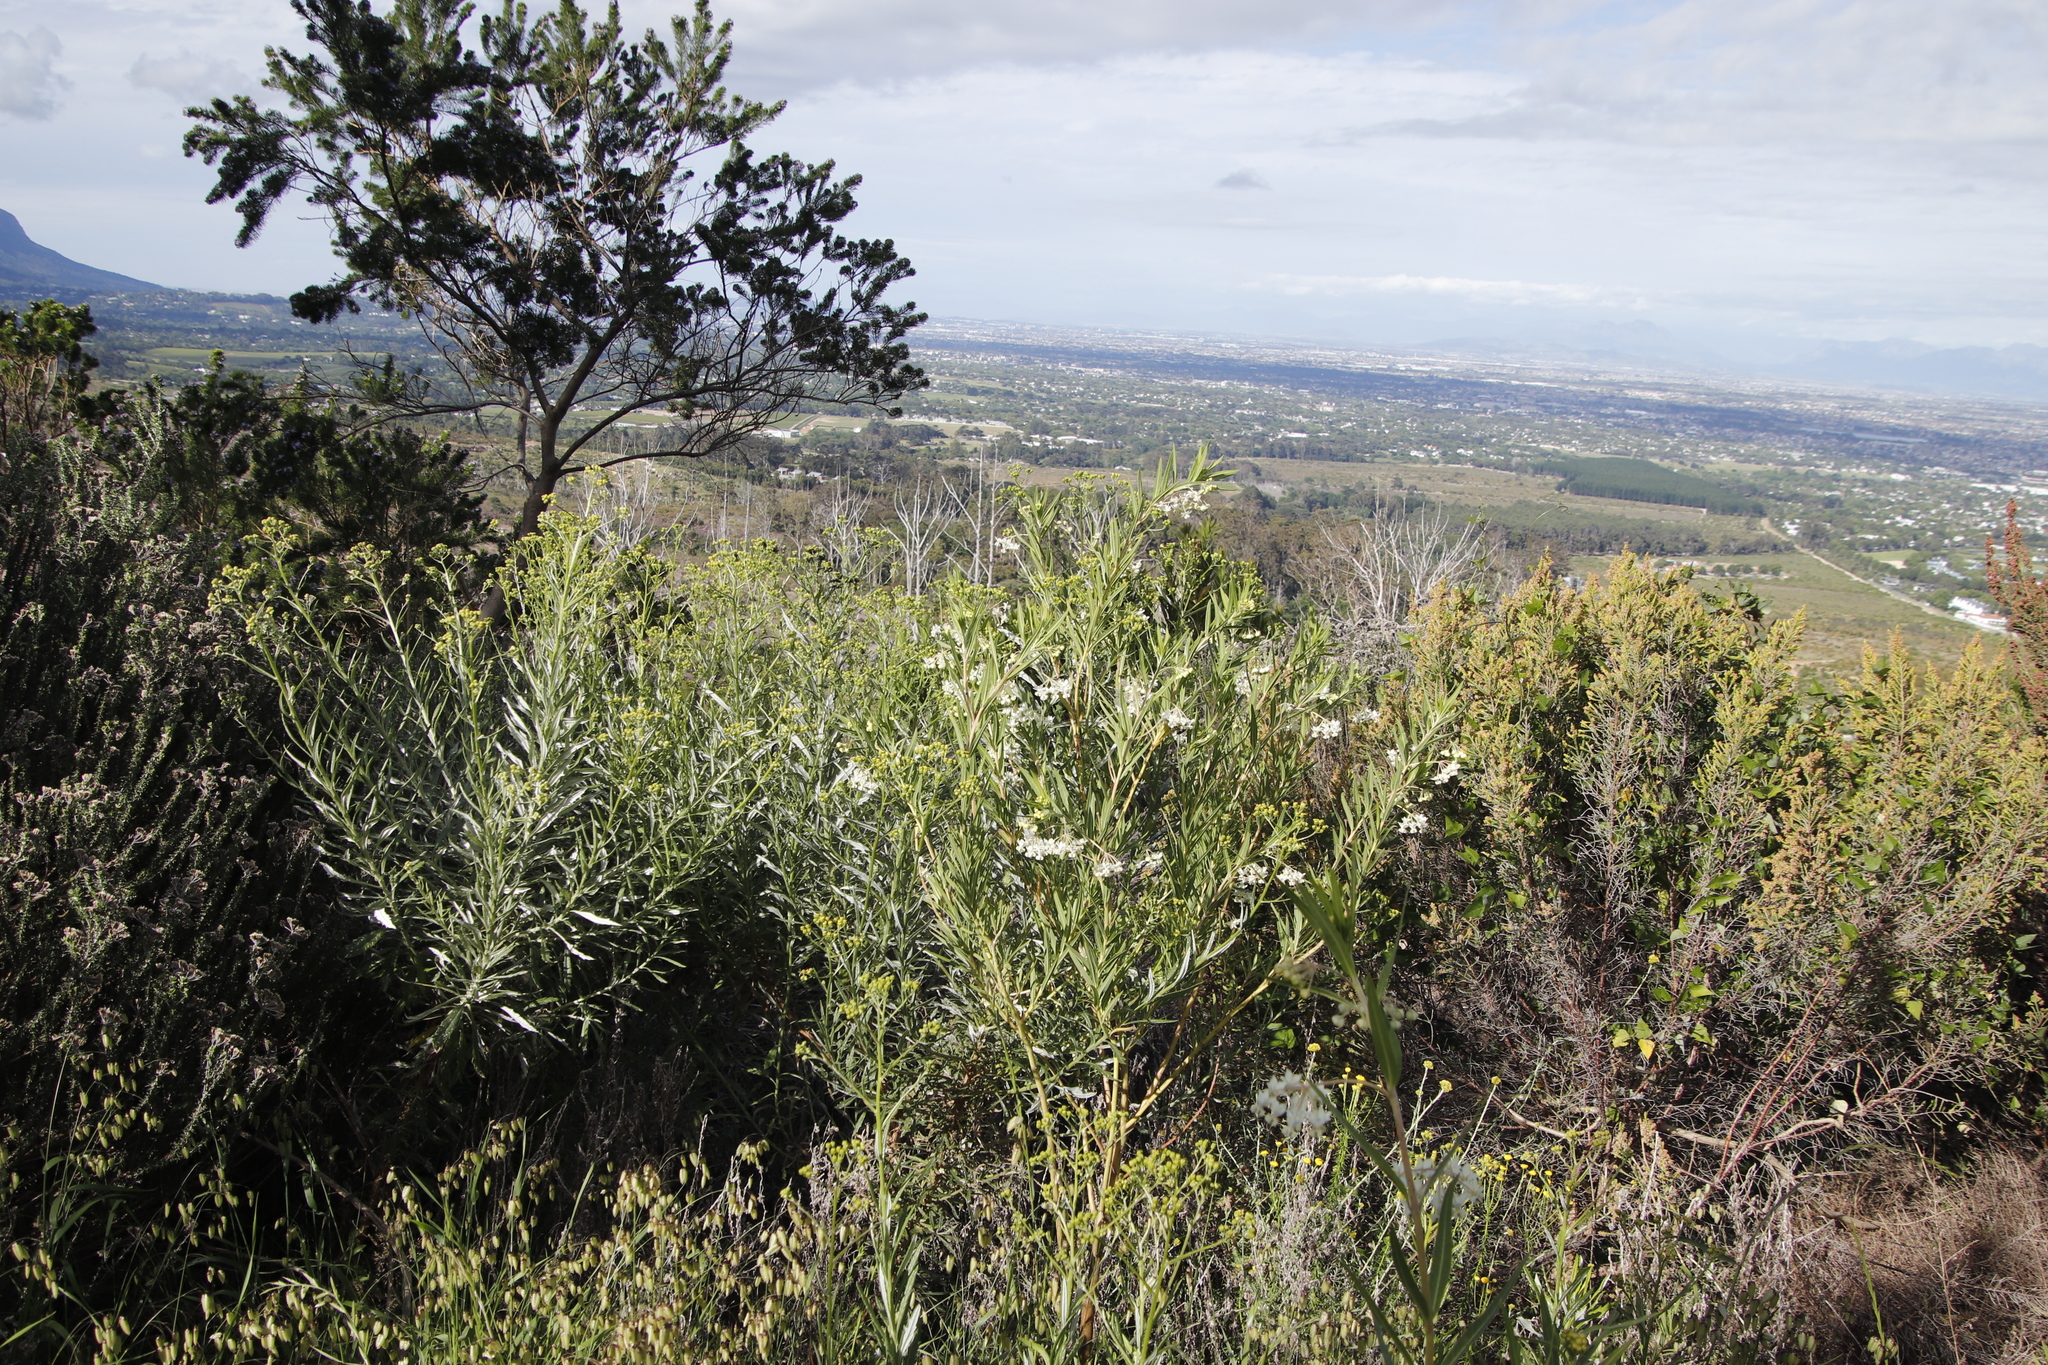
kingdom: Plantae
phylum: Tracheophyta
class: Magnoliopsida
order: Gentianales
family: Apocynaceae
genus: Gomphocarpus
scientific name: Gomphocarpus fruticosus
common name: Milkweed
